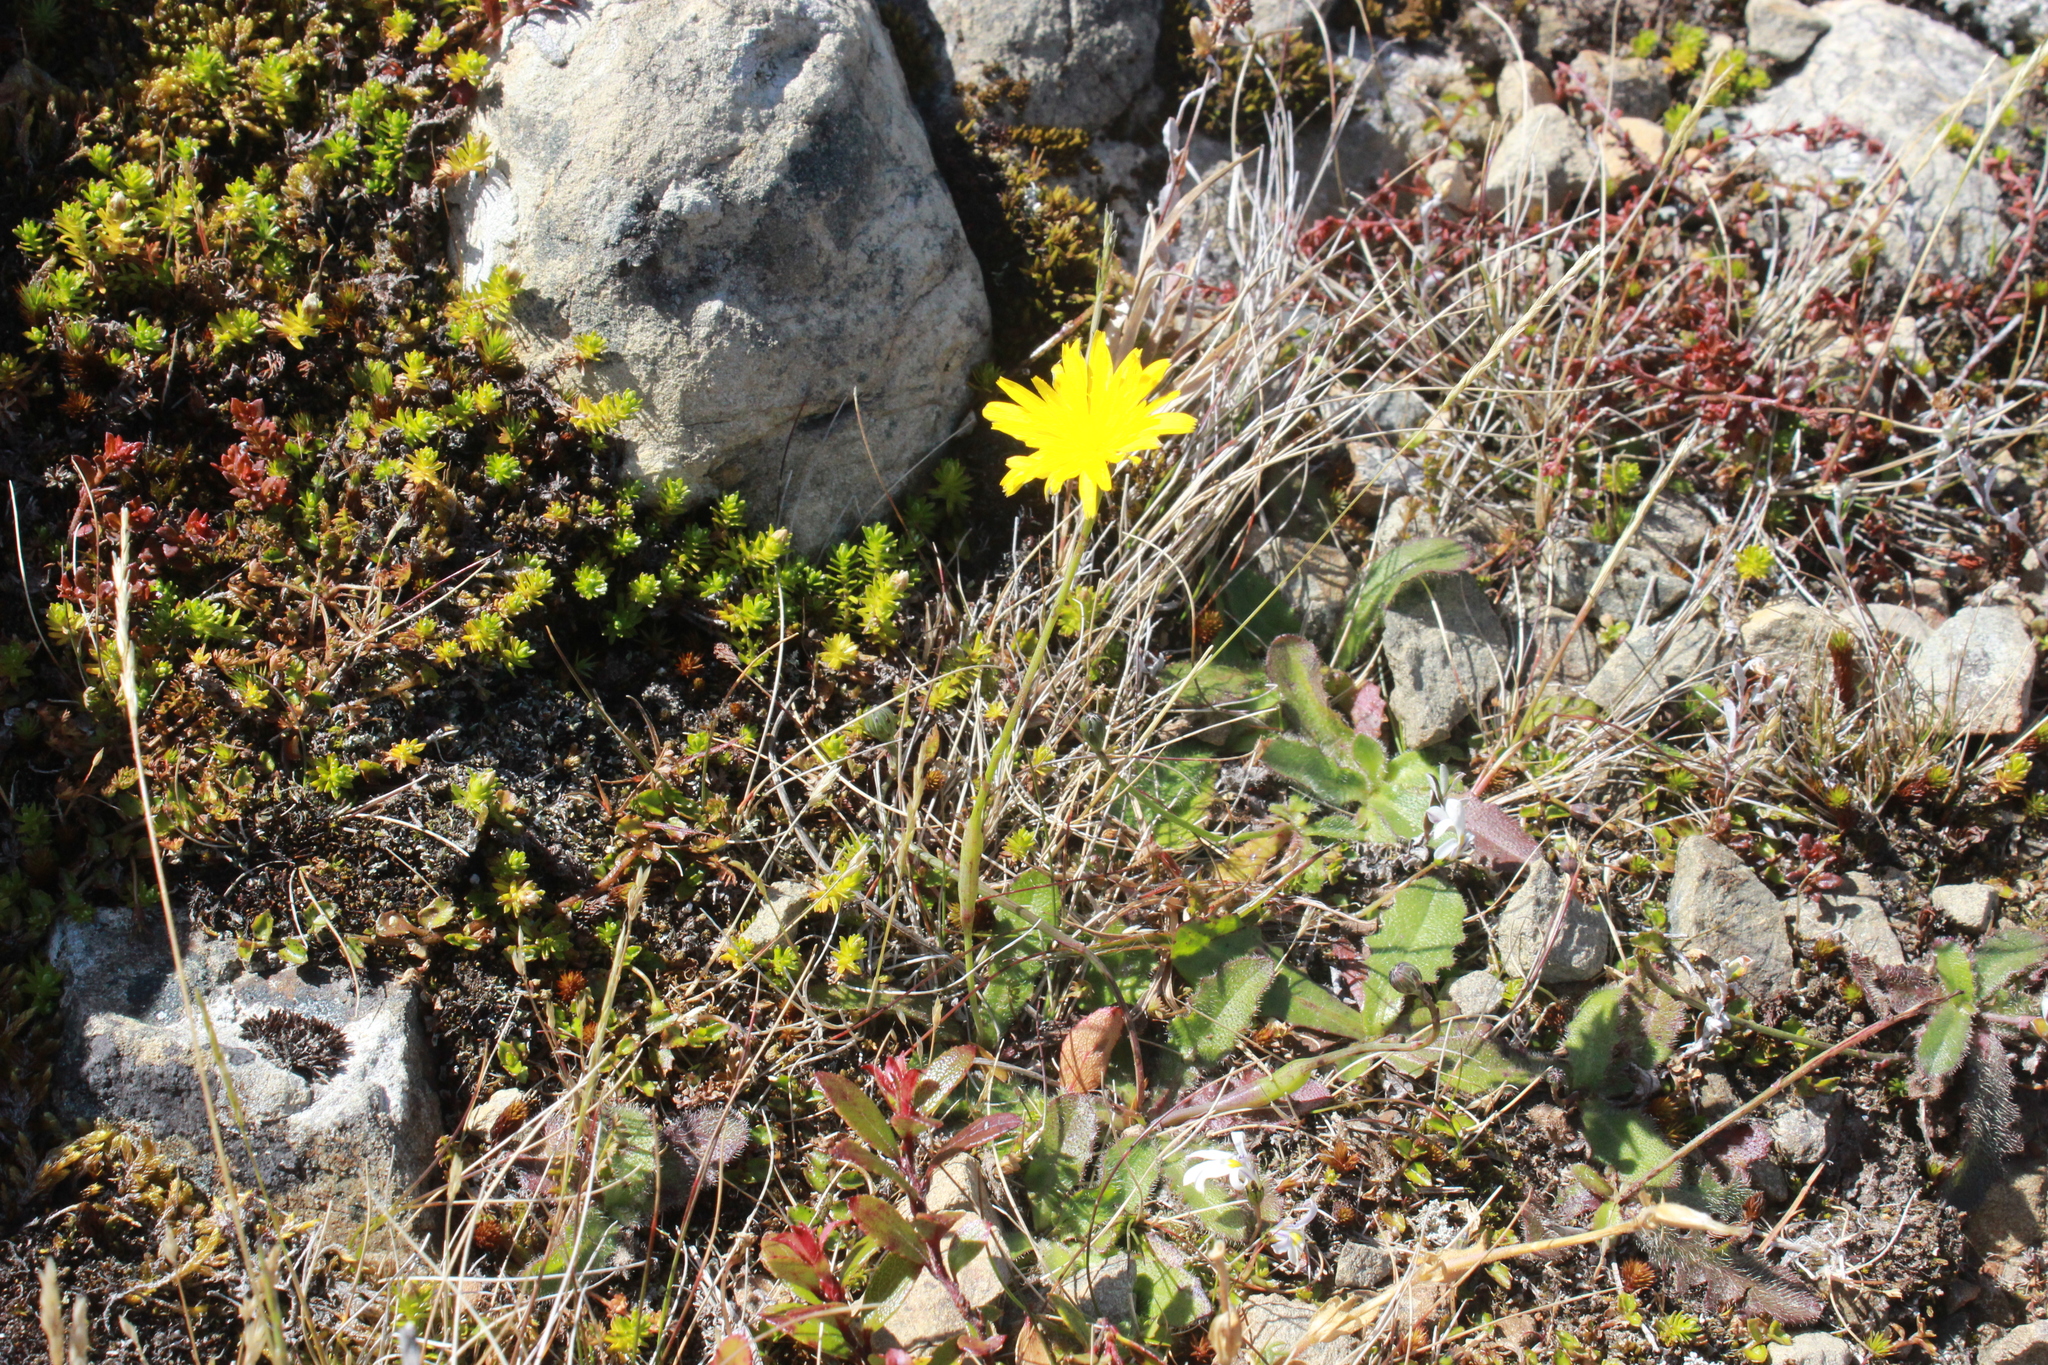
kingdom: Plantae
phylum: Tracheophyta
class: Magnoliopsida
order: Asterales
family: Asteraceae
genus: Hypochaeris
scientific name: Hypochaeris radicata
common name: Flatweed
